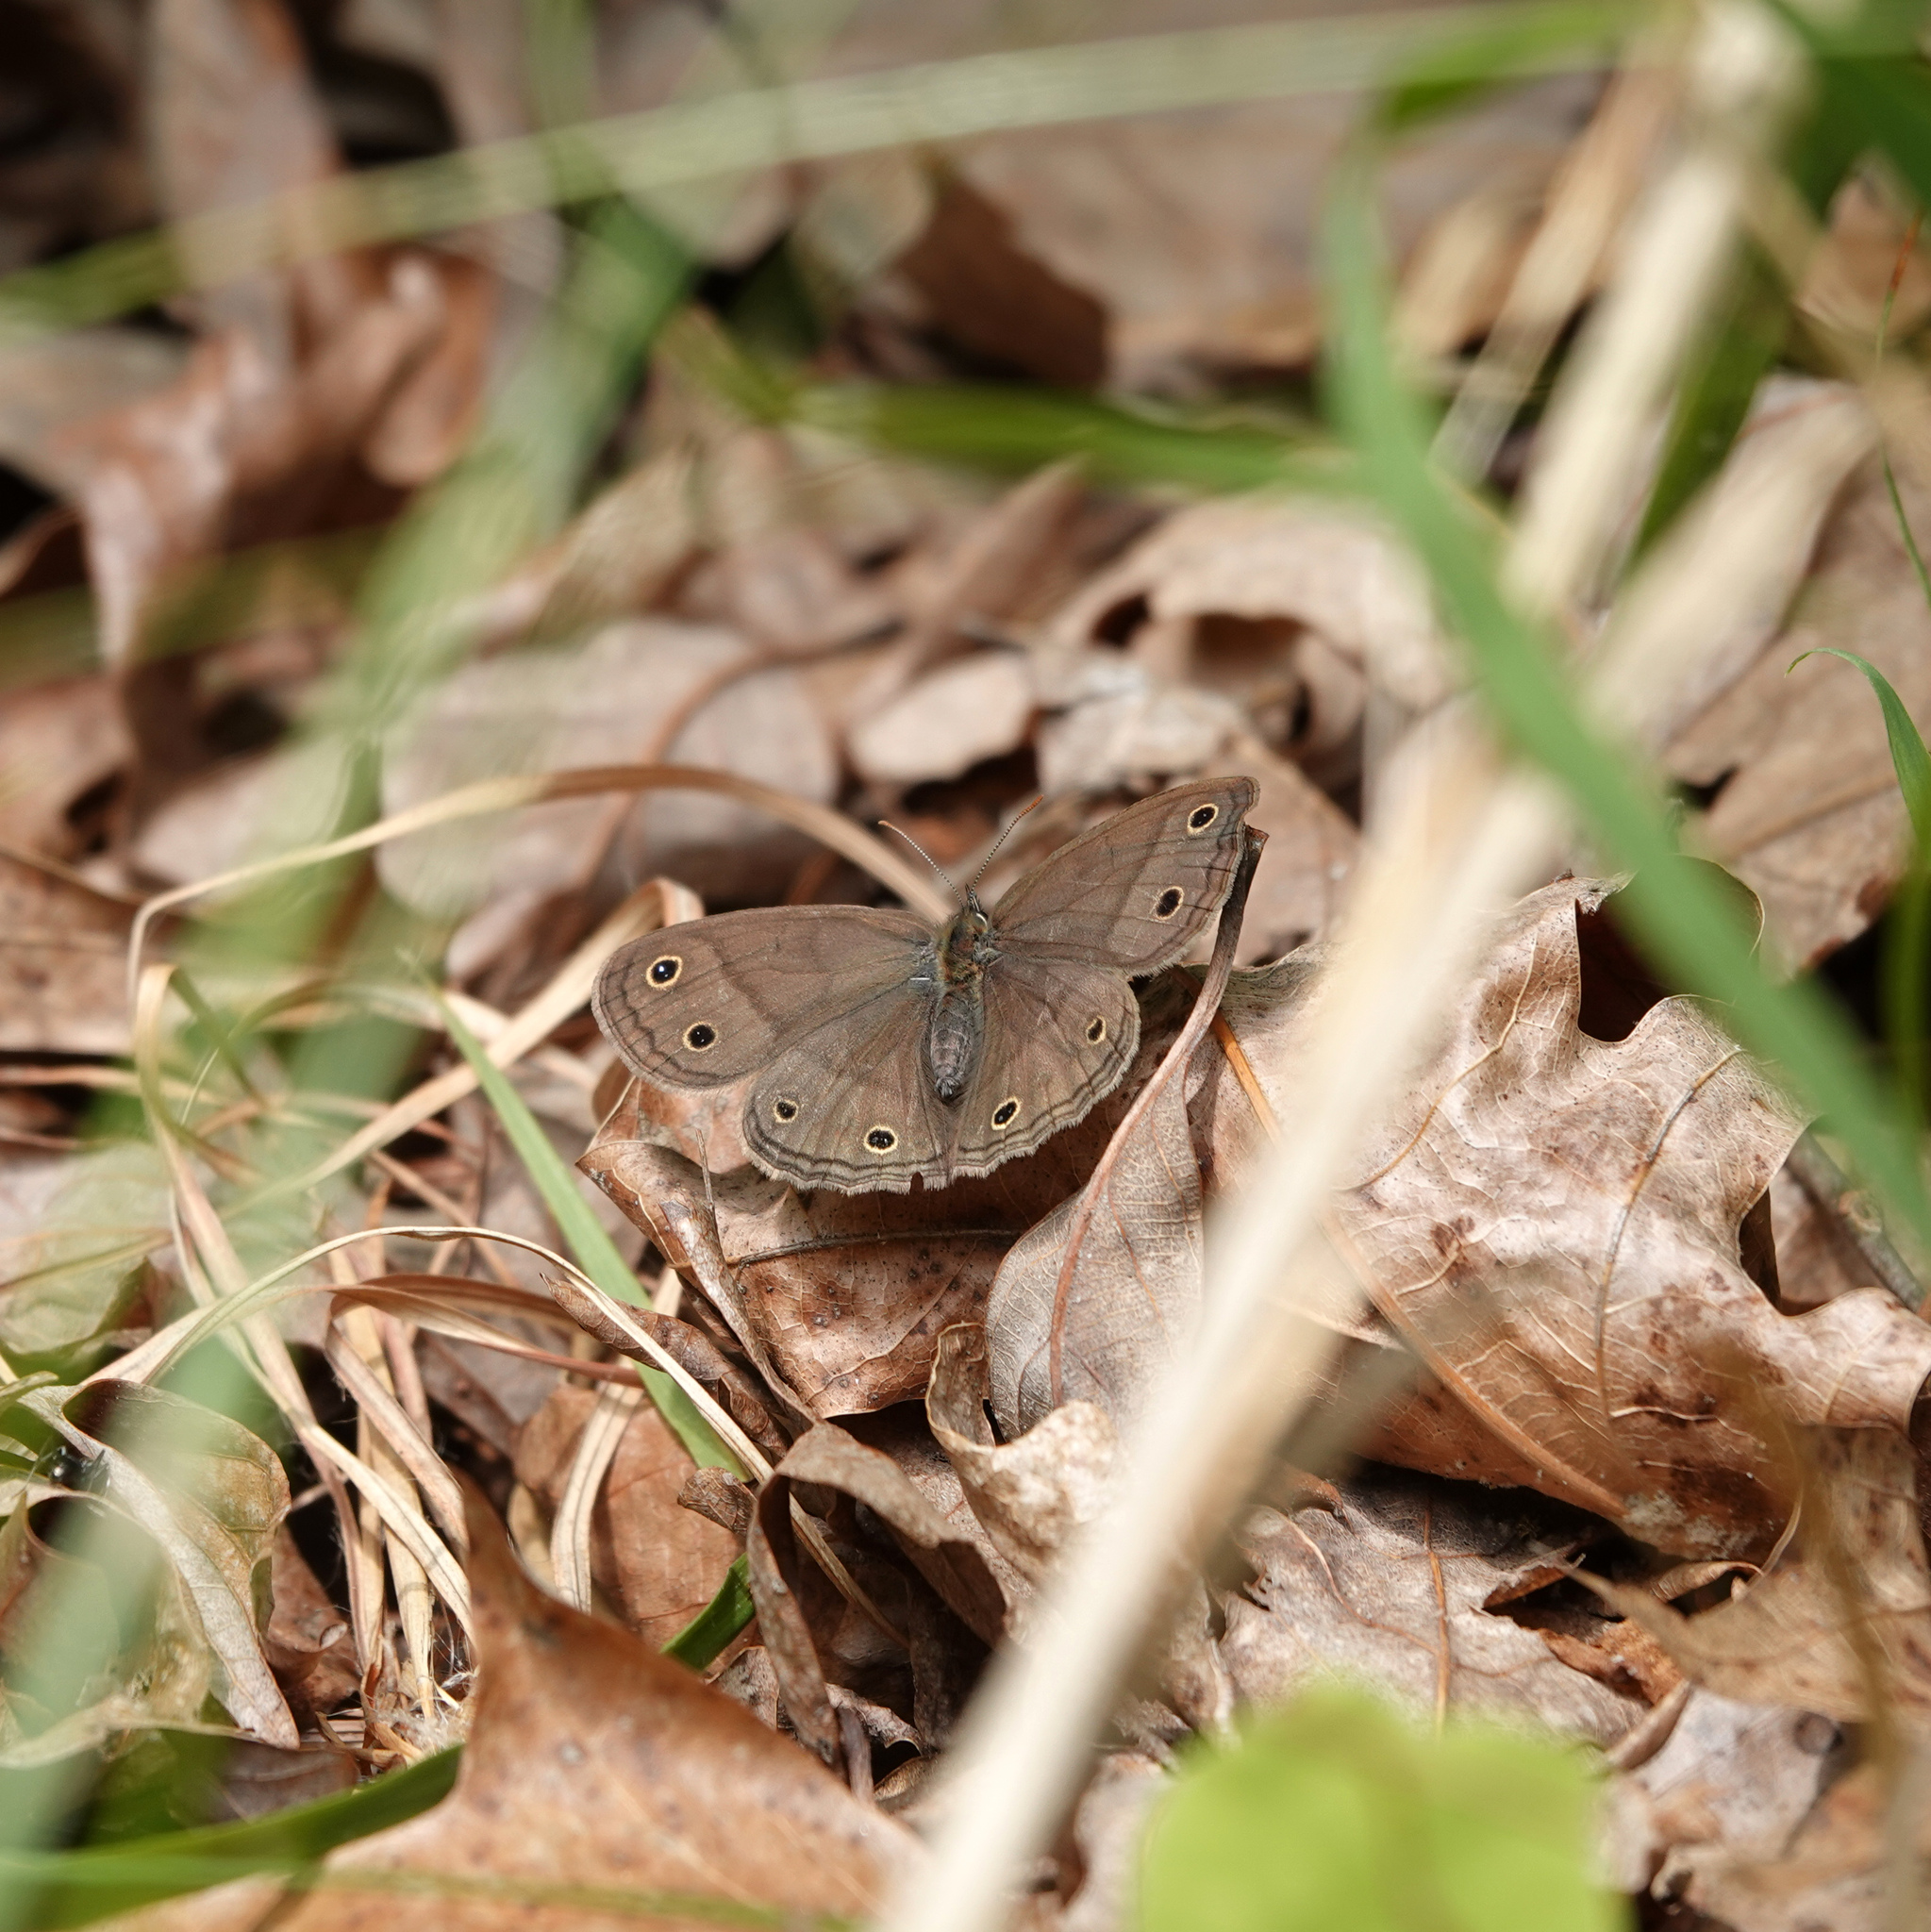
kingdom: Animalia
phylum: Arthropoda
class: Insecta
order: Lepidoptera
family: Nymphalidae
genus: Euptychia
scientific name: Euptychia cymela
